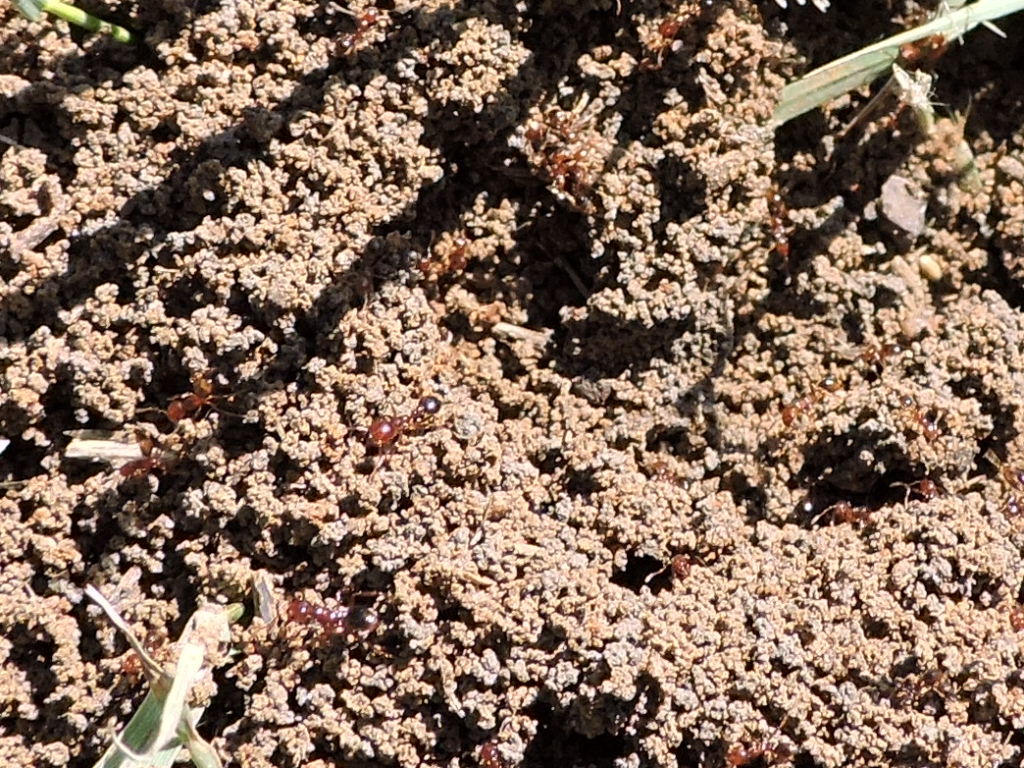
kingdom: Animalia
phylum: Arthropoda
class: Insecta
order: Hymenoptera
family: Formicidae
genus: Solenopsis
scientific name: Solenopsis invicta
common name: Red imported fire ant
